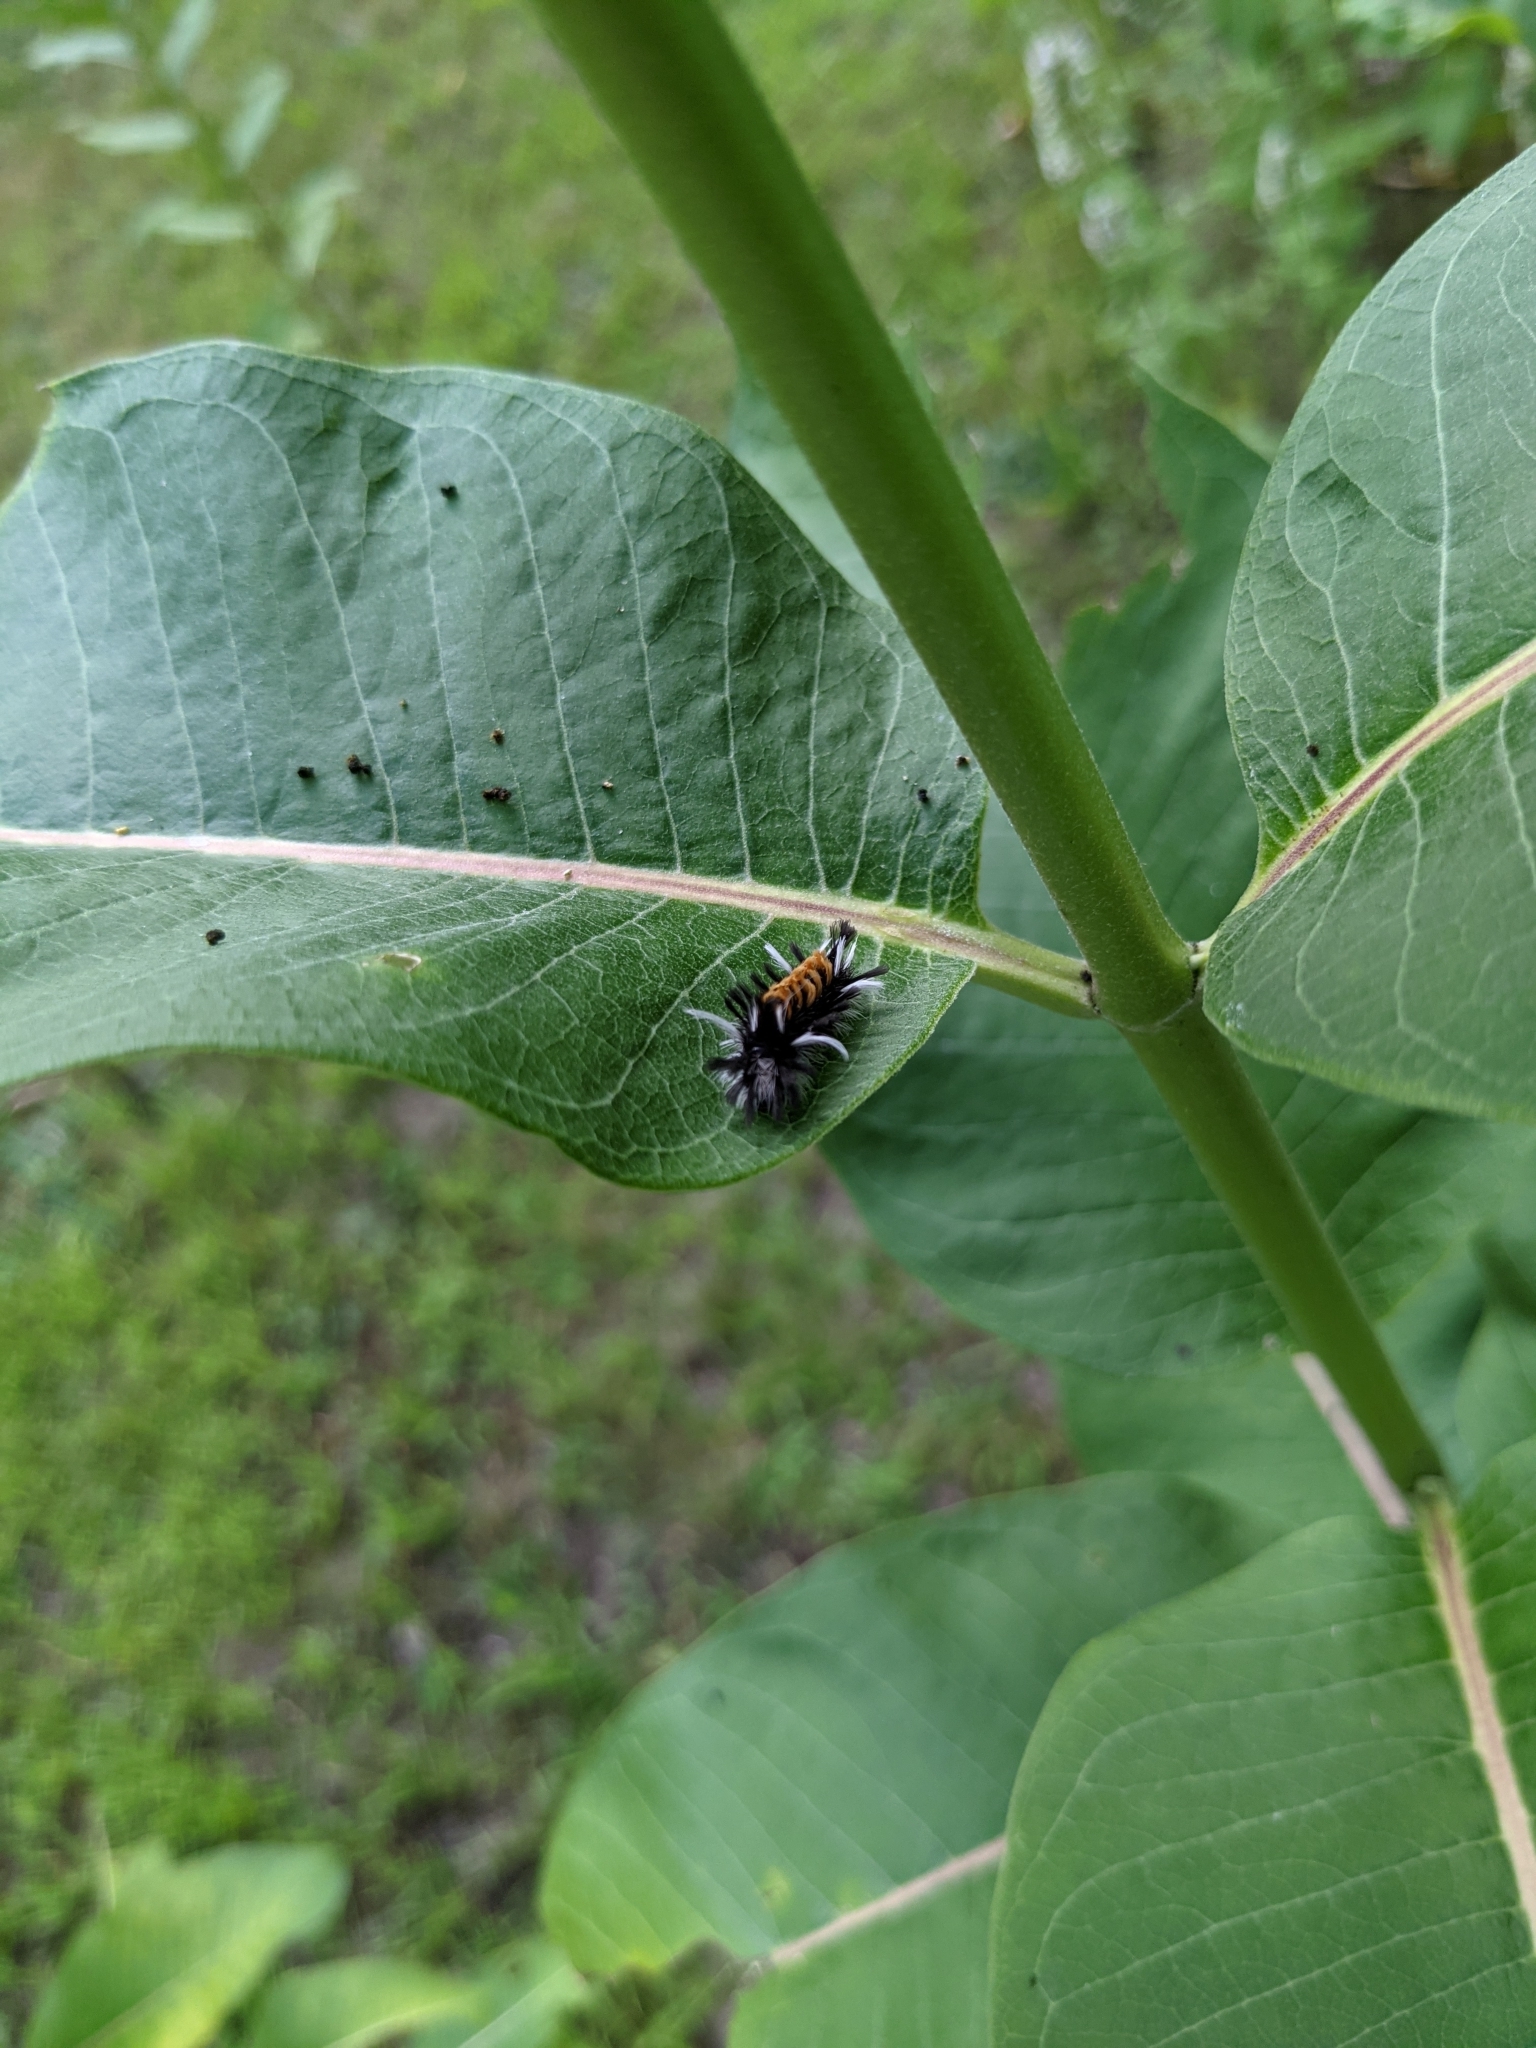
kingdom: Animalia
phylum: Arthropoda
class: Insecta
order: Lepidoptera
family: Erebidae
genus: Euchaetes
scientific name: Euchaetes egle
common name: Milkweed tussock moth
